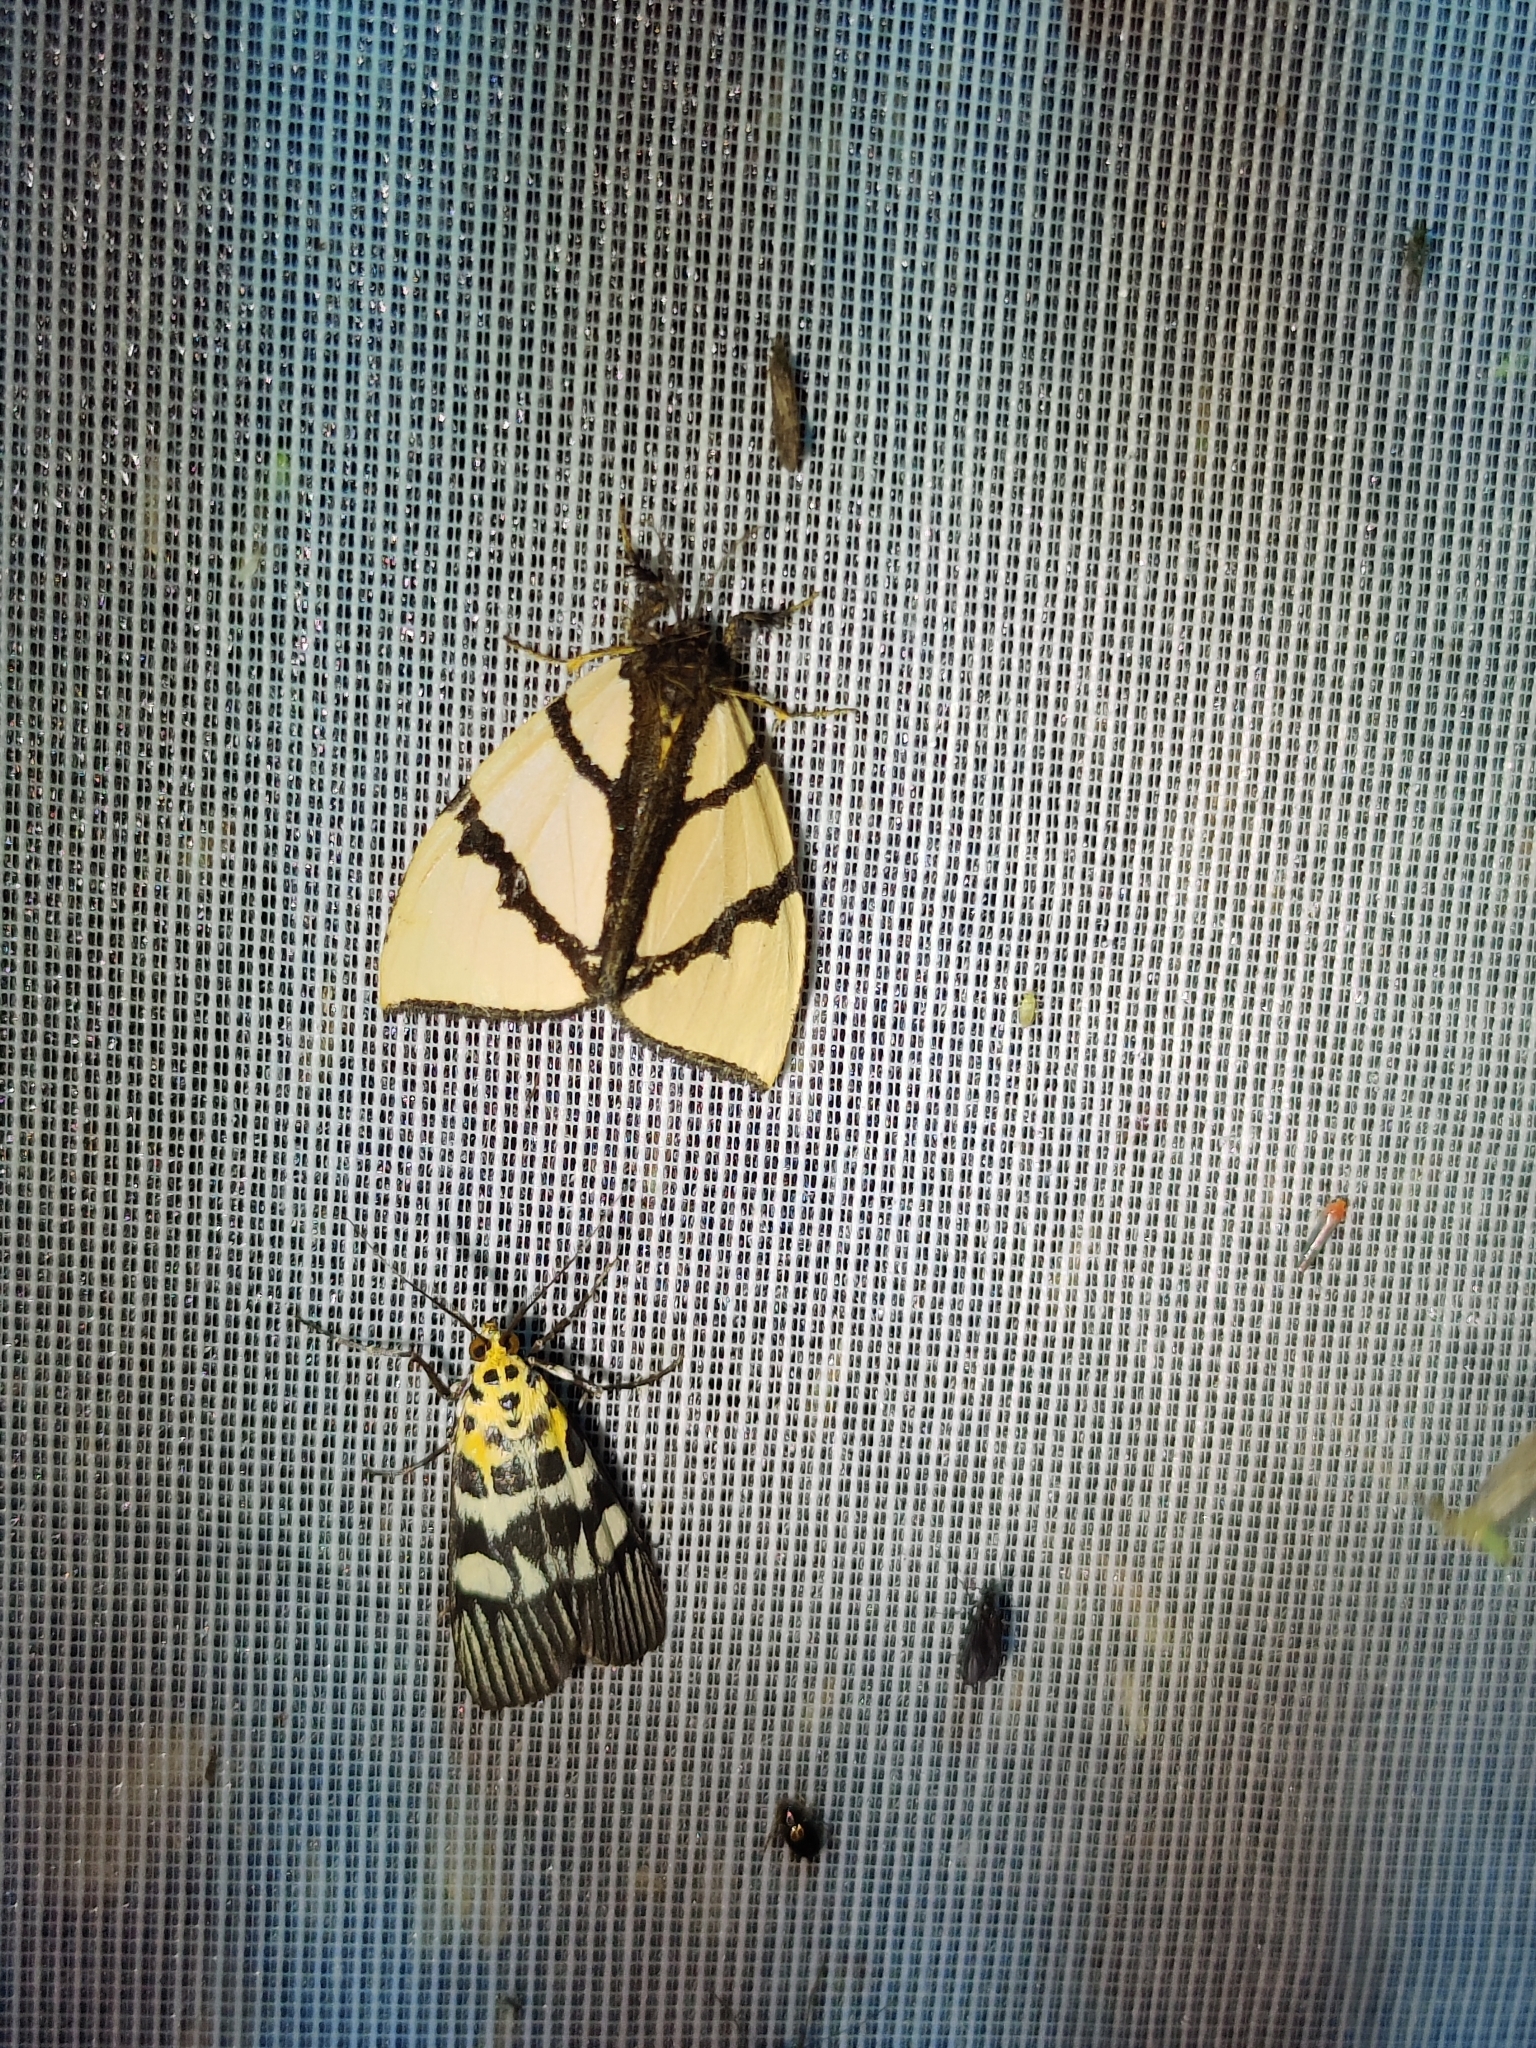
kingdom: Animalia
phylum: Arthropoda
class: Insecta
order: Lepidoptera
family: Pyralidae
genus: Vitessa
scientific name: Vitessa suradeva
